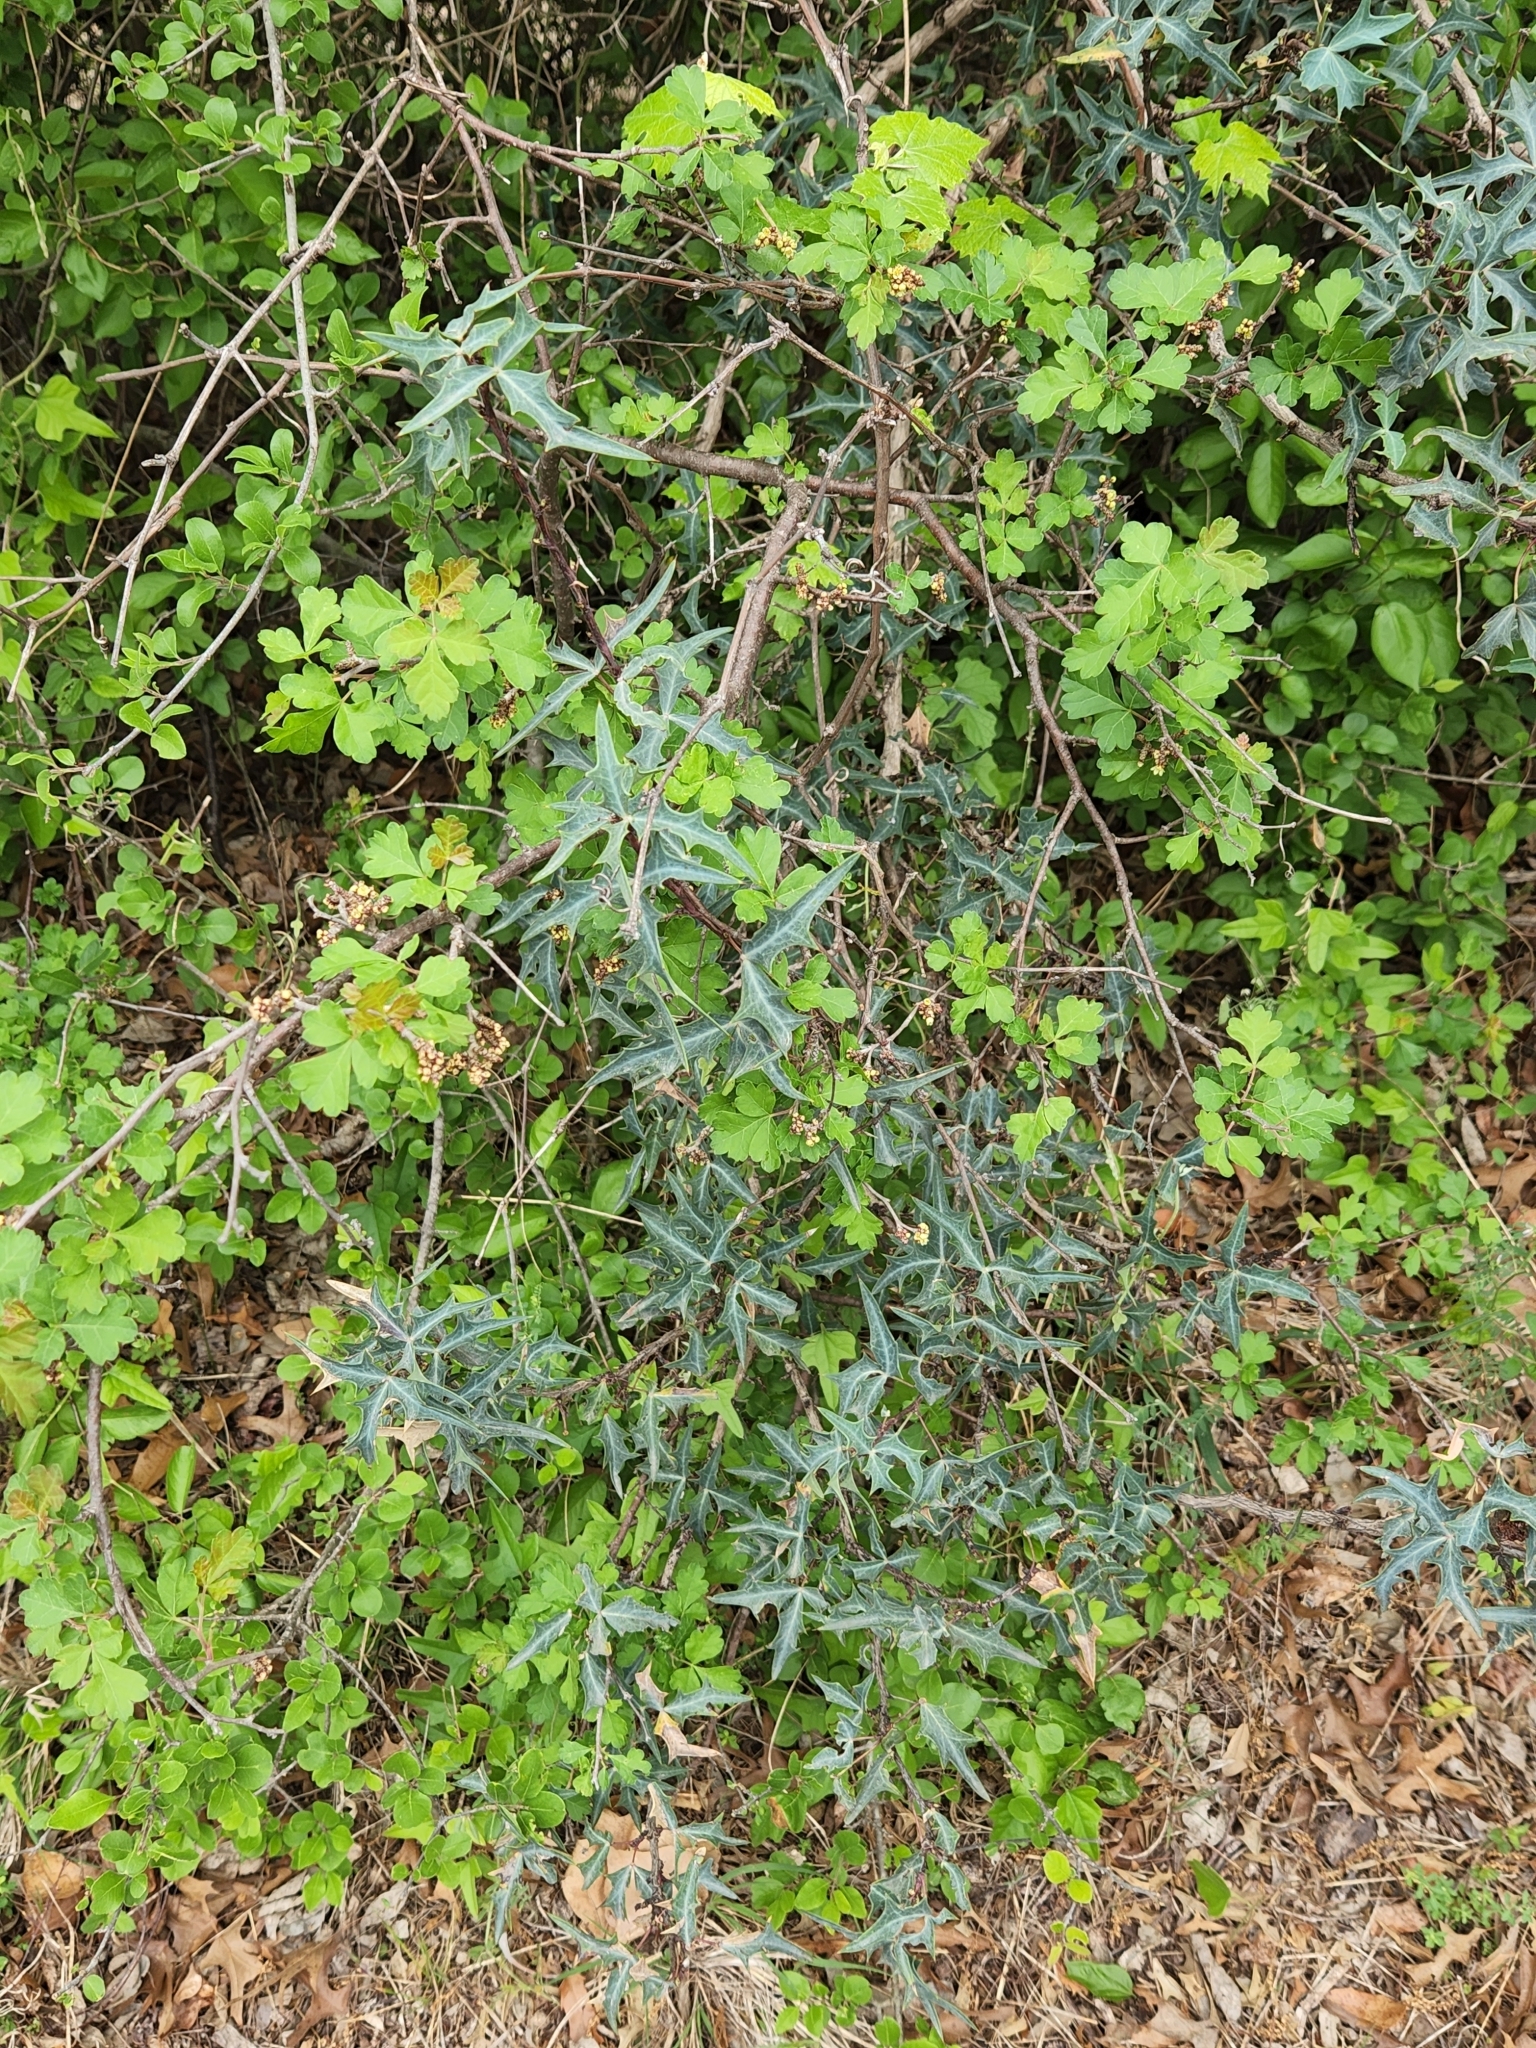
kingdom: Plantae
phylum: Tracheophyta
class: Magnoliopsida
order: Sapindales
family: Anacardiaceae
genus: Rhus
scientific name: Rhus aromatica
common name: Aromatic sumac
